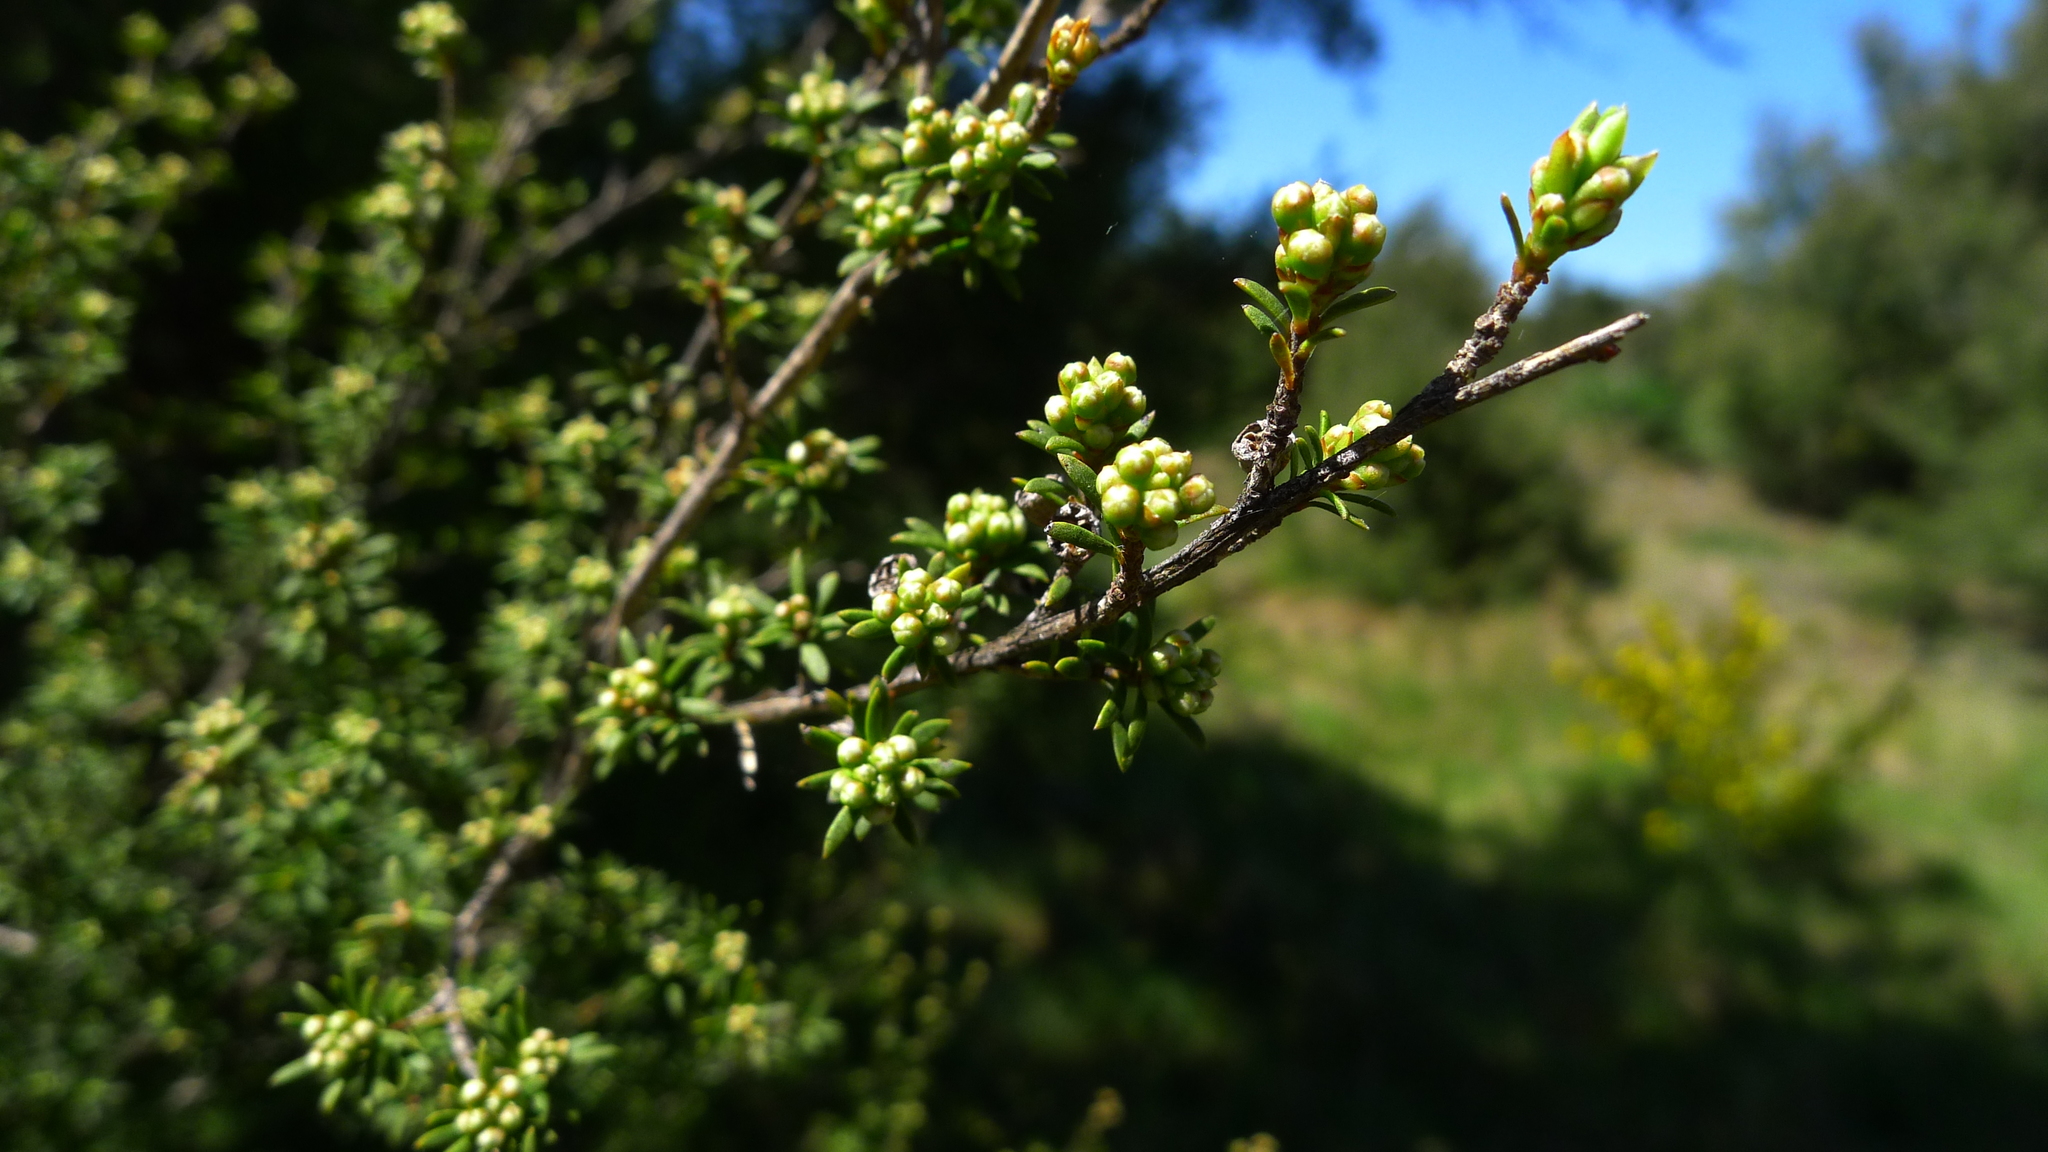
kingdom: Plantae
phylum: Tracheophyta
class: Magnoliopsida
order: Myrtales
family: Myrtaceae
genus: Kunzea
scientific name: Kunzea serotina
